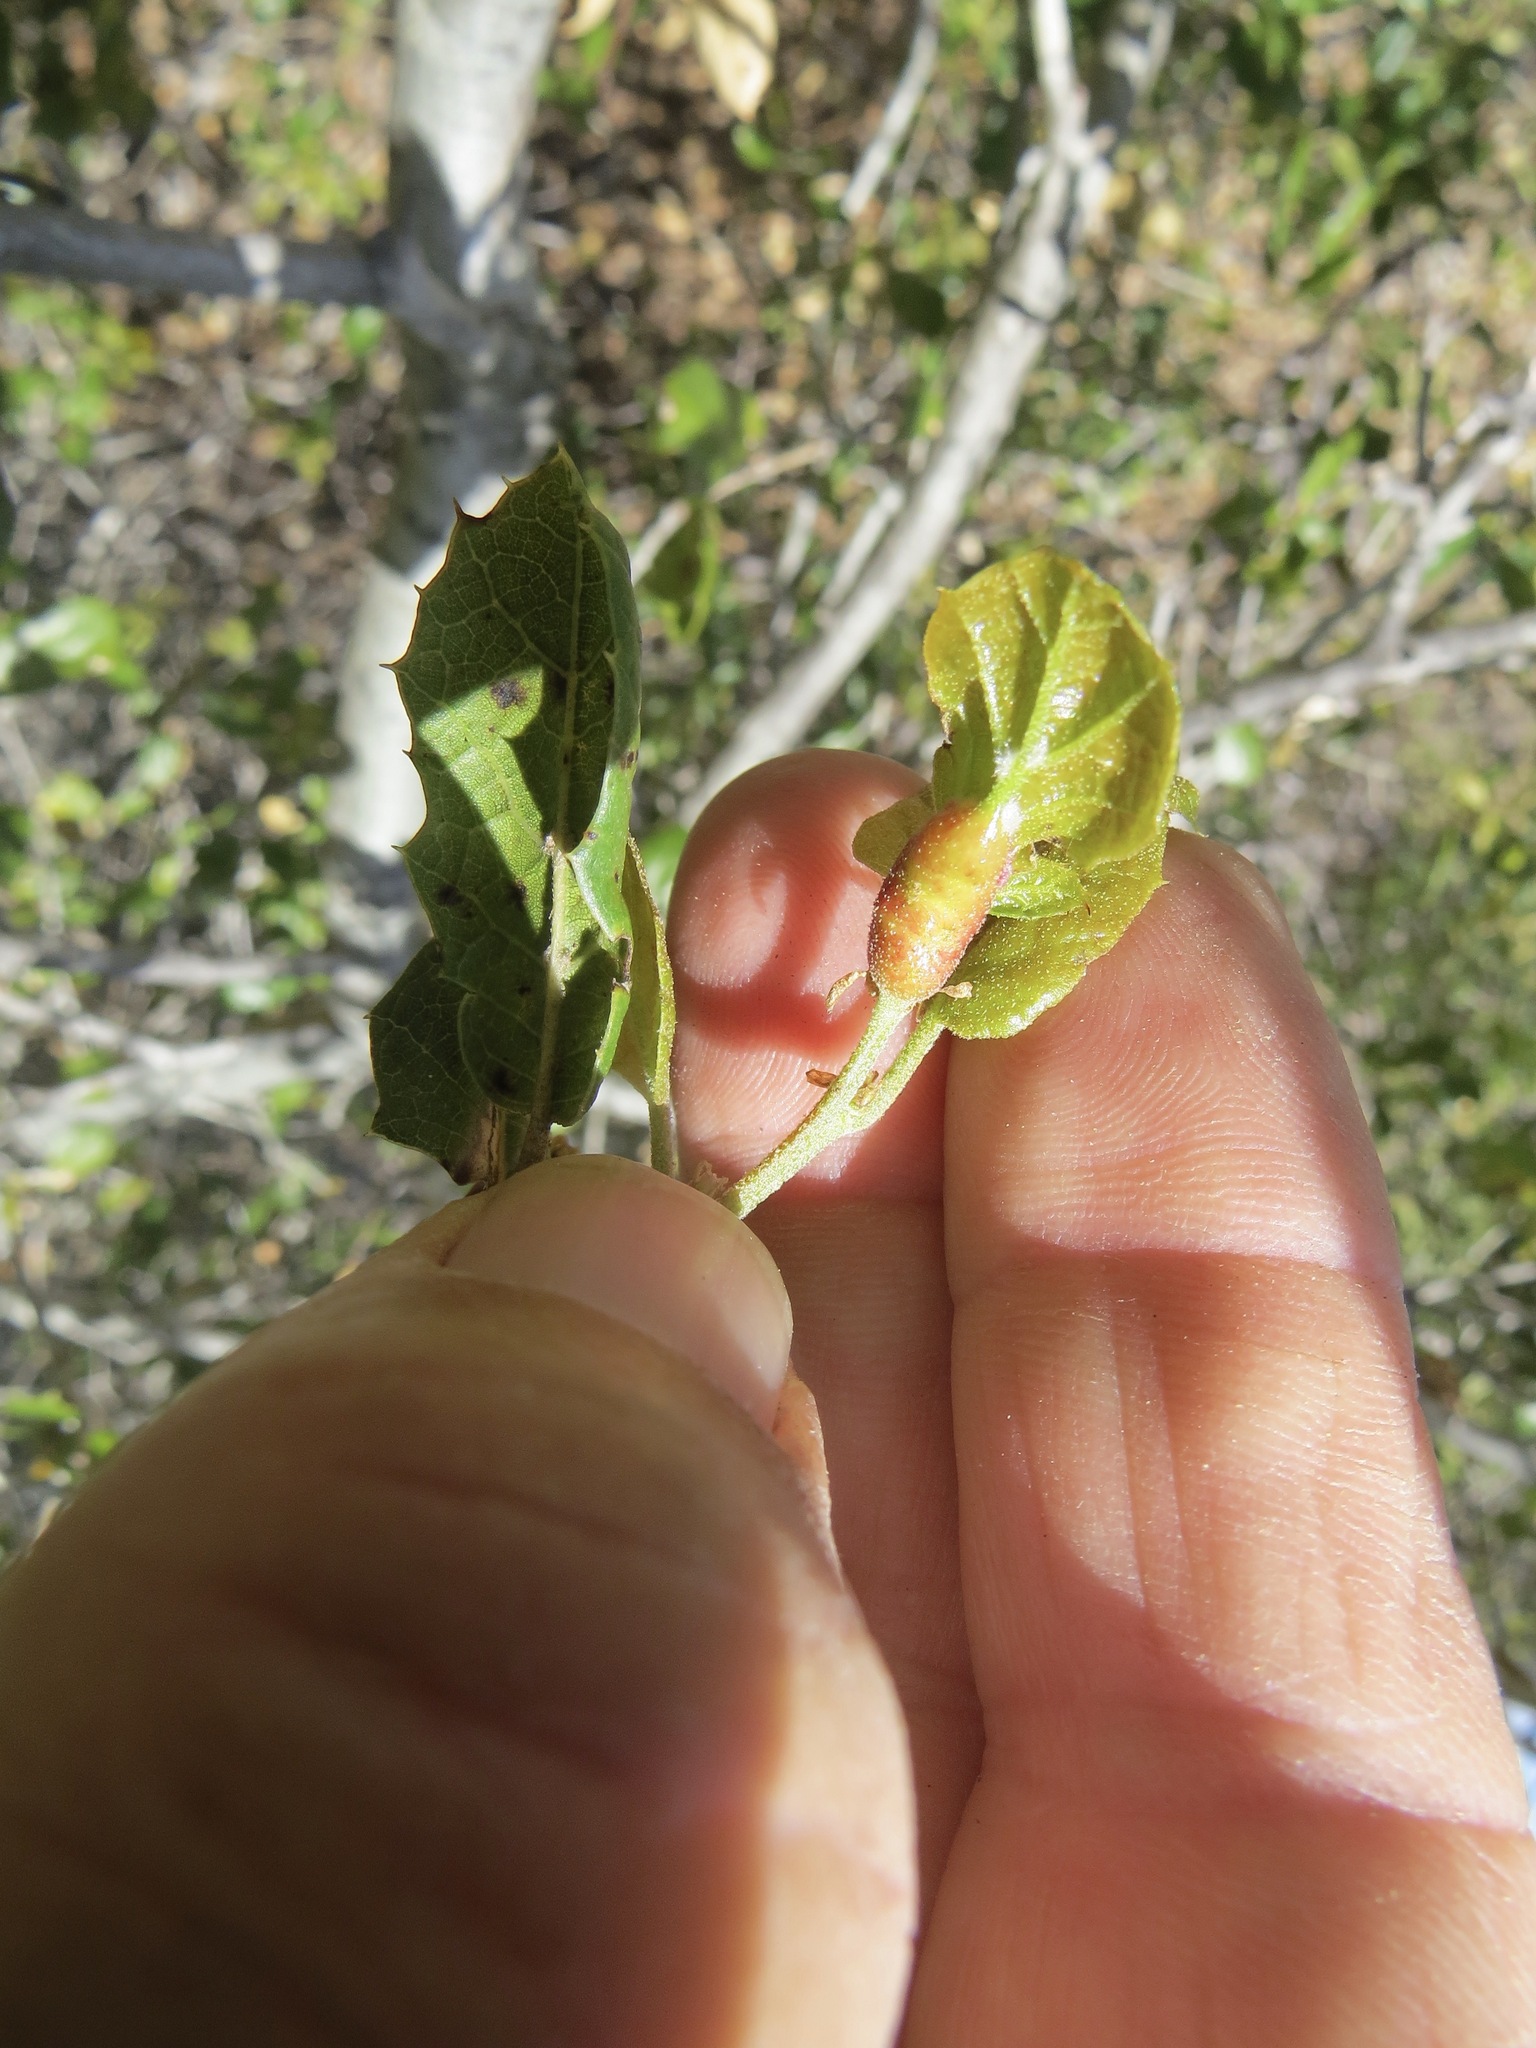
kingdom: Animalia
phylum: Arthropoda
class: Insecta
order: Hymenoptera
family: Cynipidae
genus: Melikaiella
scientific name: Melikaiella
